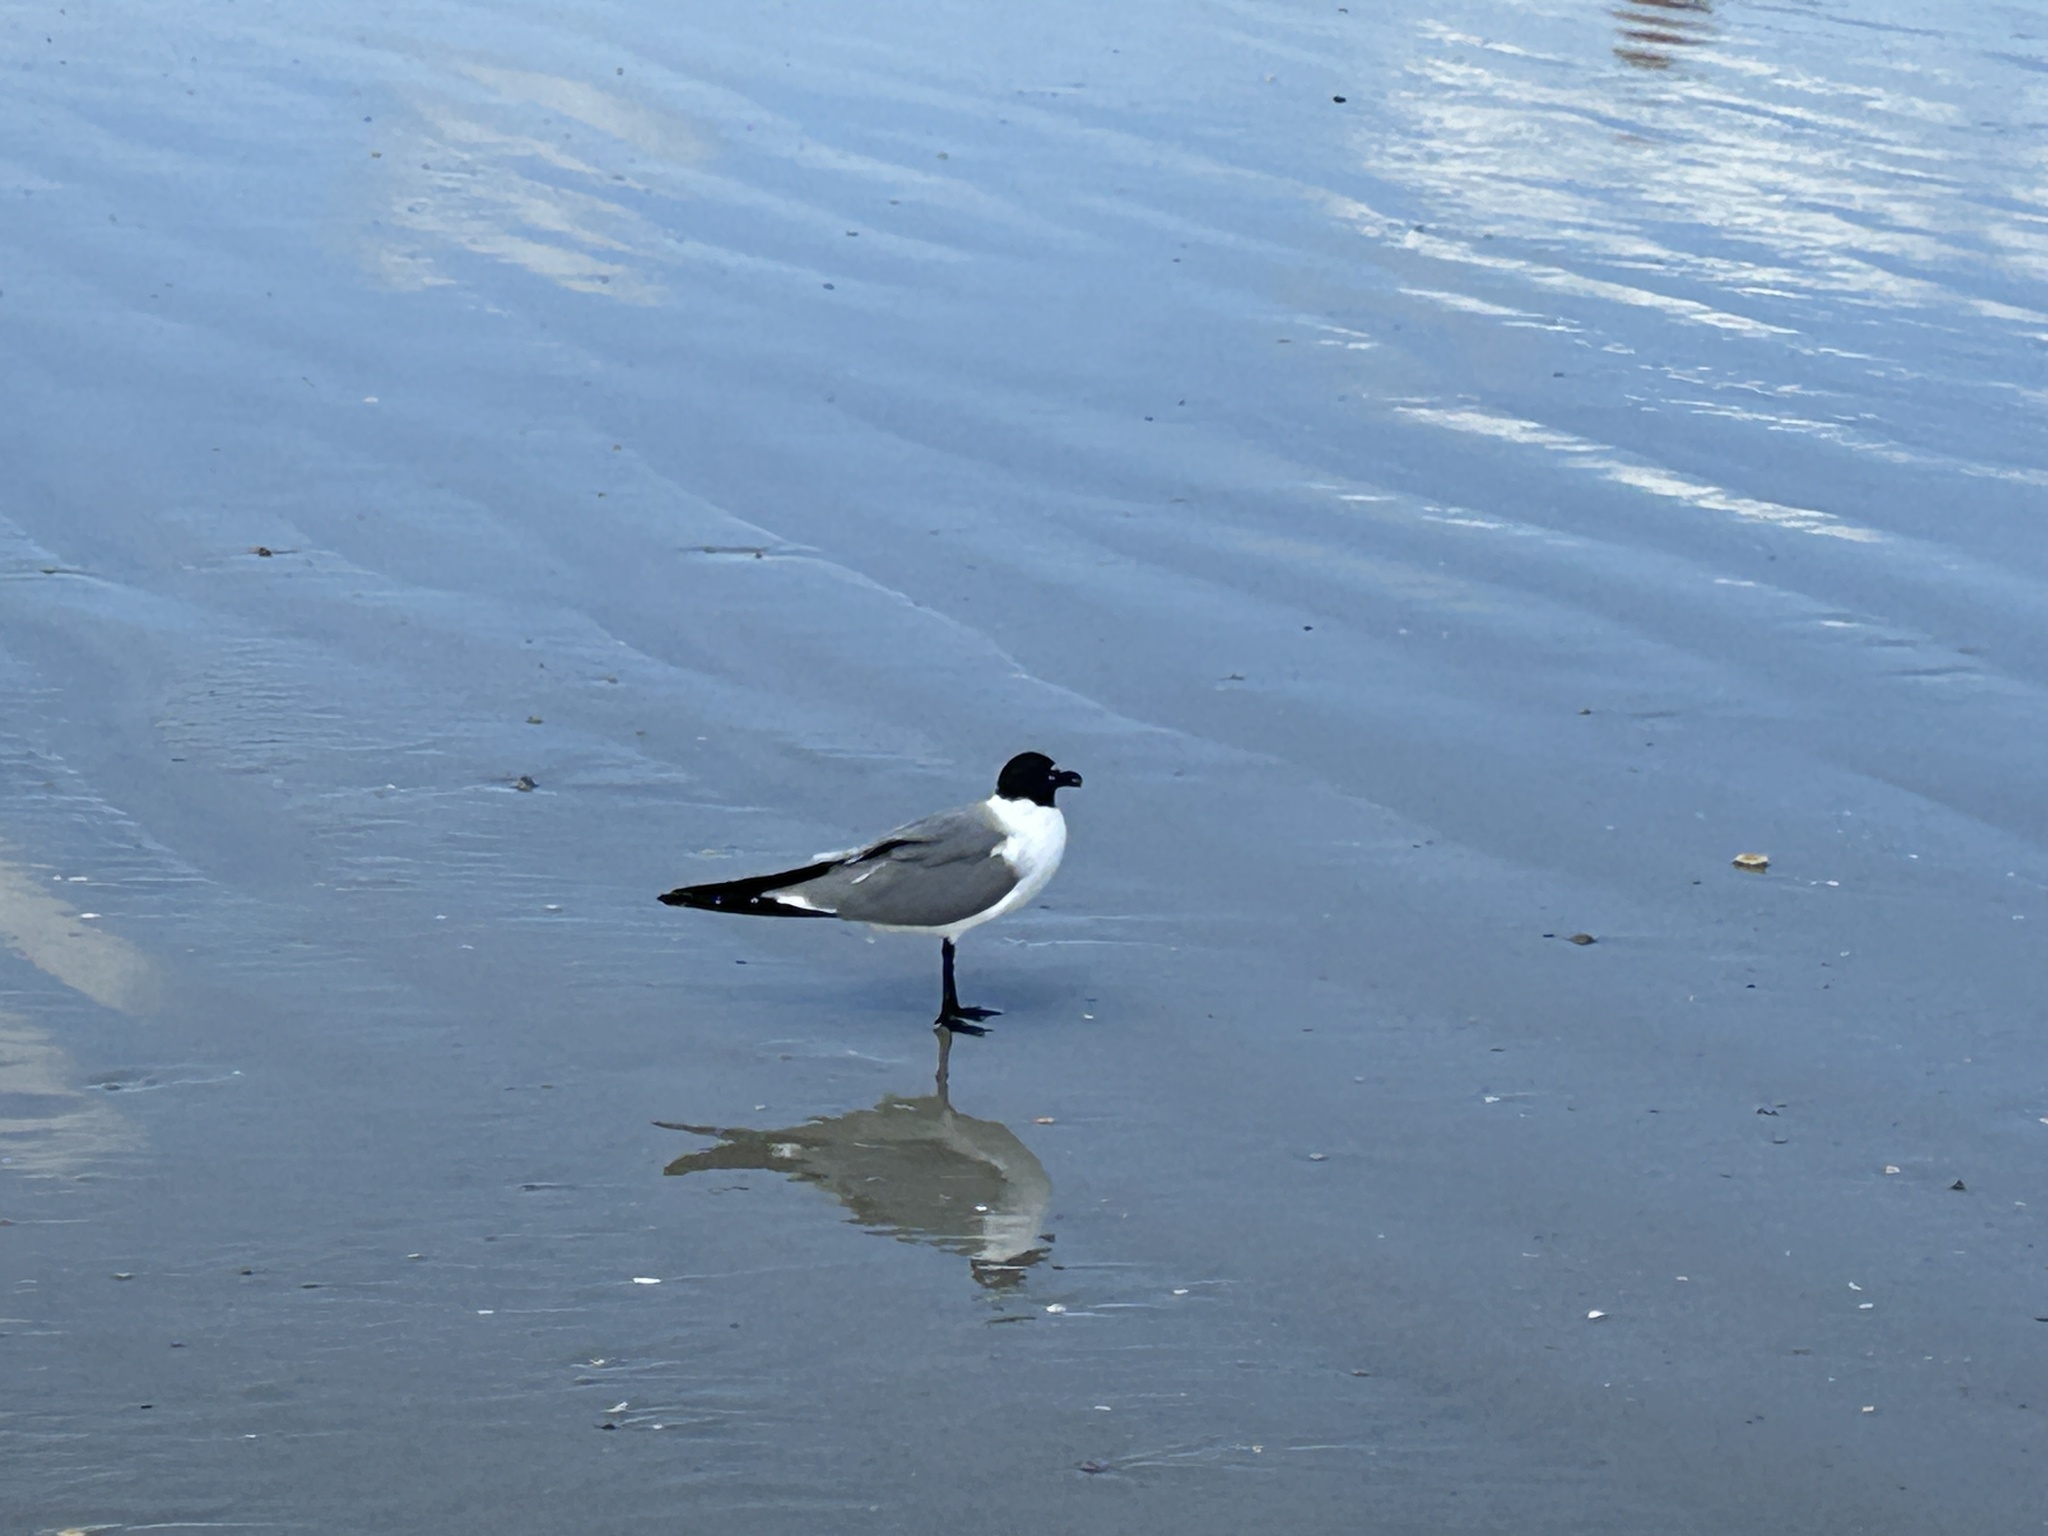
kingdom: Animalia
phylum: Chordata
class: Aves
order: Charadriiformes
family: Laridae
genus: Leucophaeus
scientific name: Leucophaeus atricilla
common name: Laughing gull
